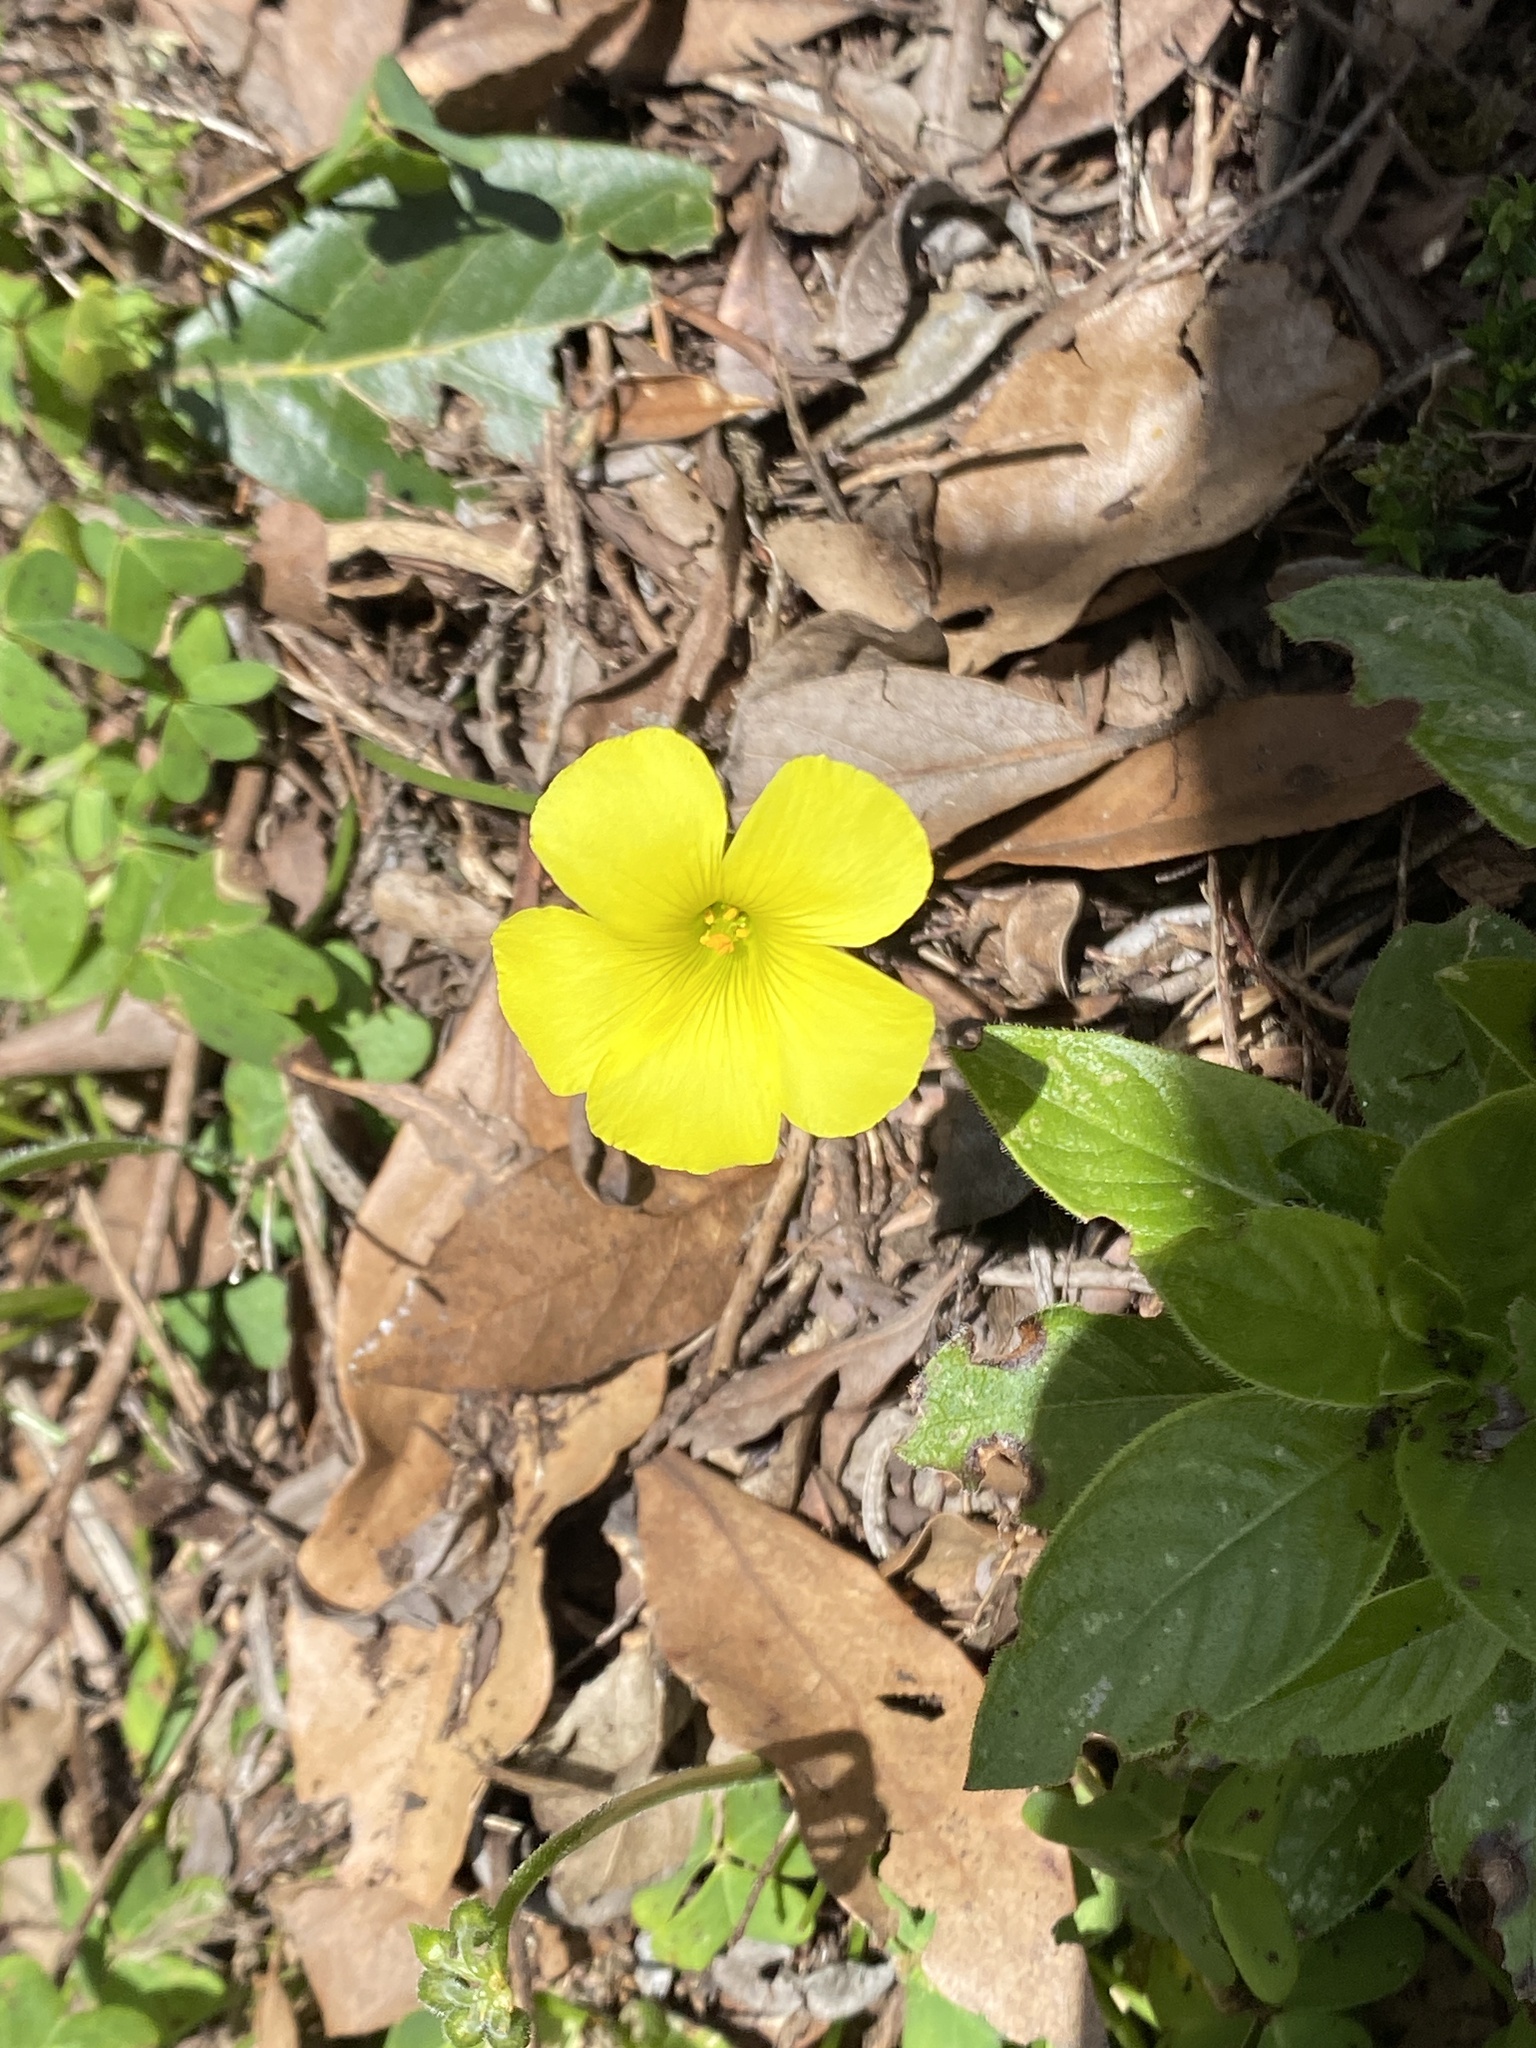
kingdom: Plantae
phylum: Tracheophyta
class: Magnoliopsida
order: Oxalidales
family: Oxalidaceae
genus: Oxalis
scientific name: Oxalis pes-caprae
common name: Bermuda-buttercup
